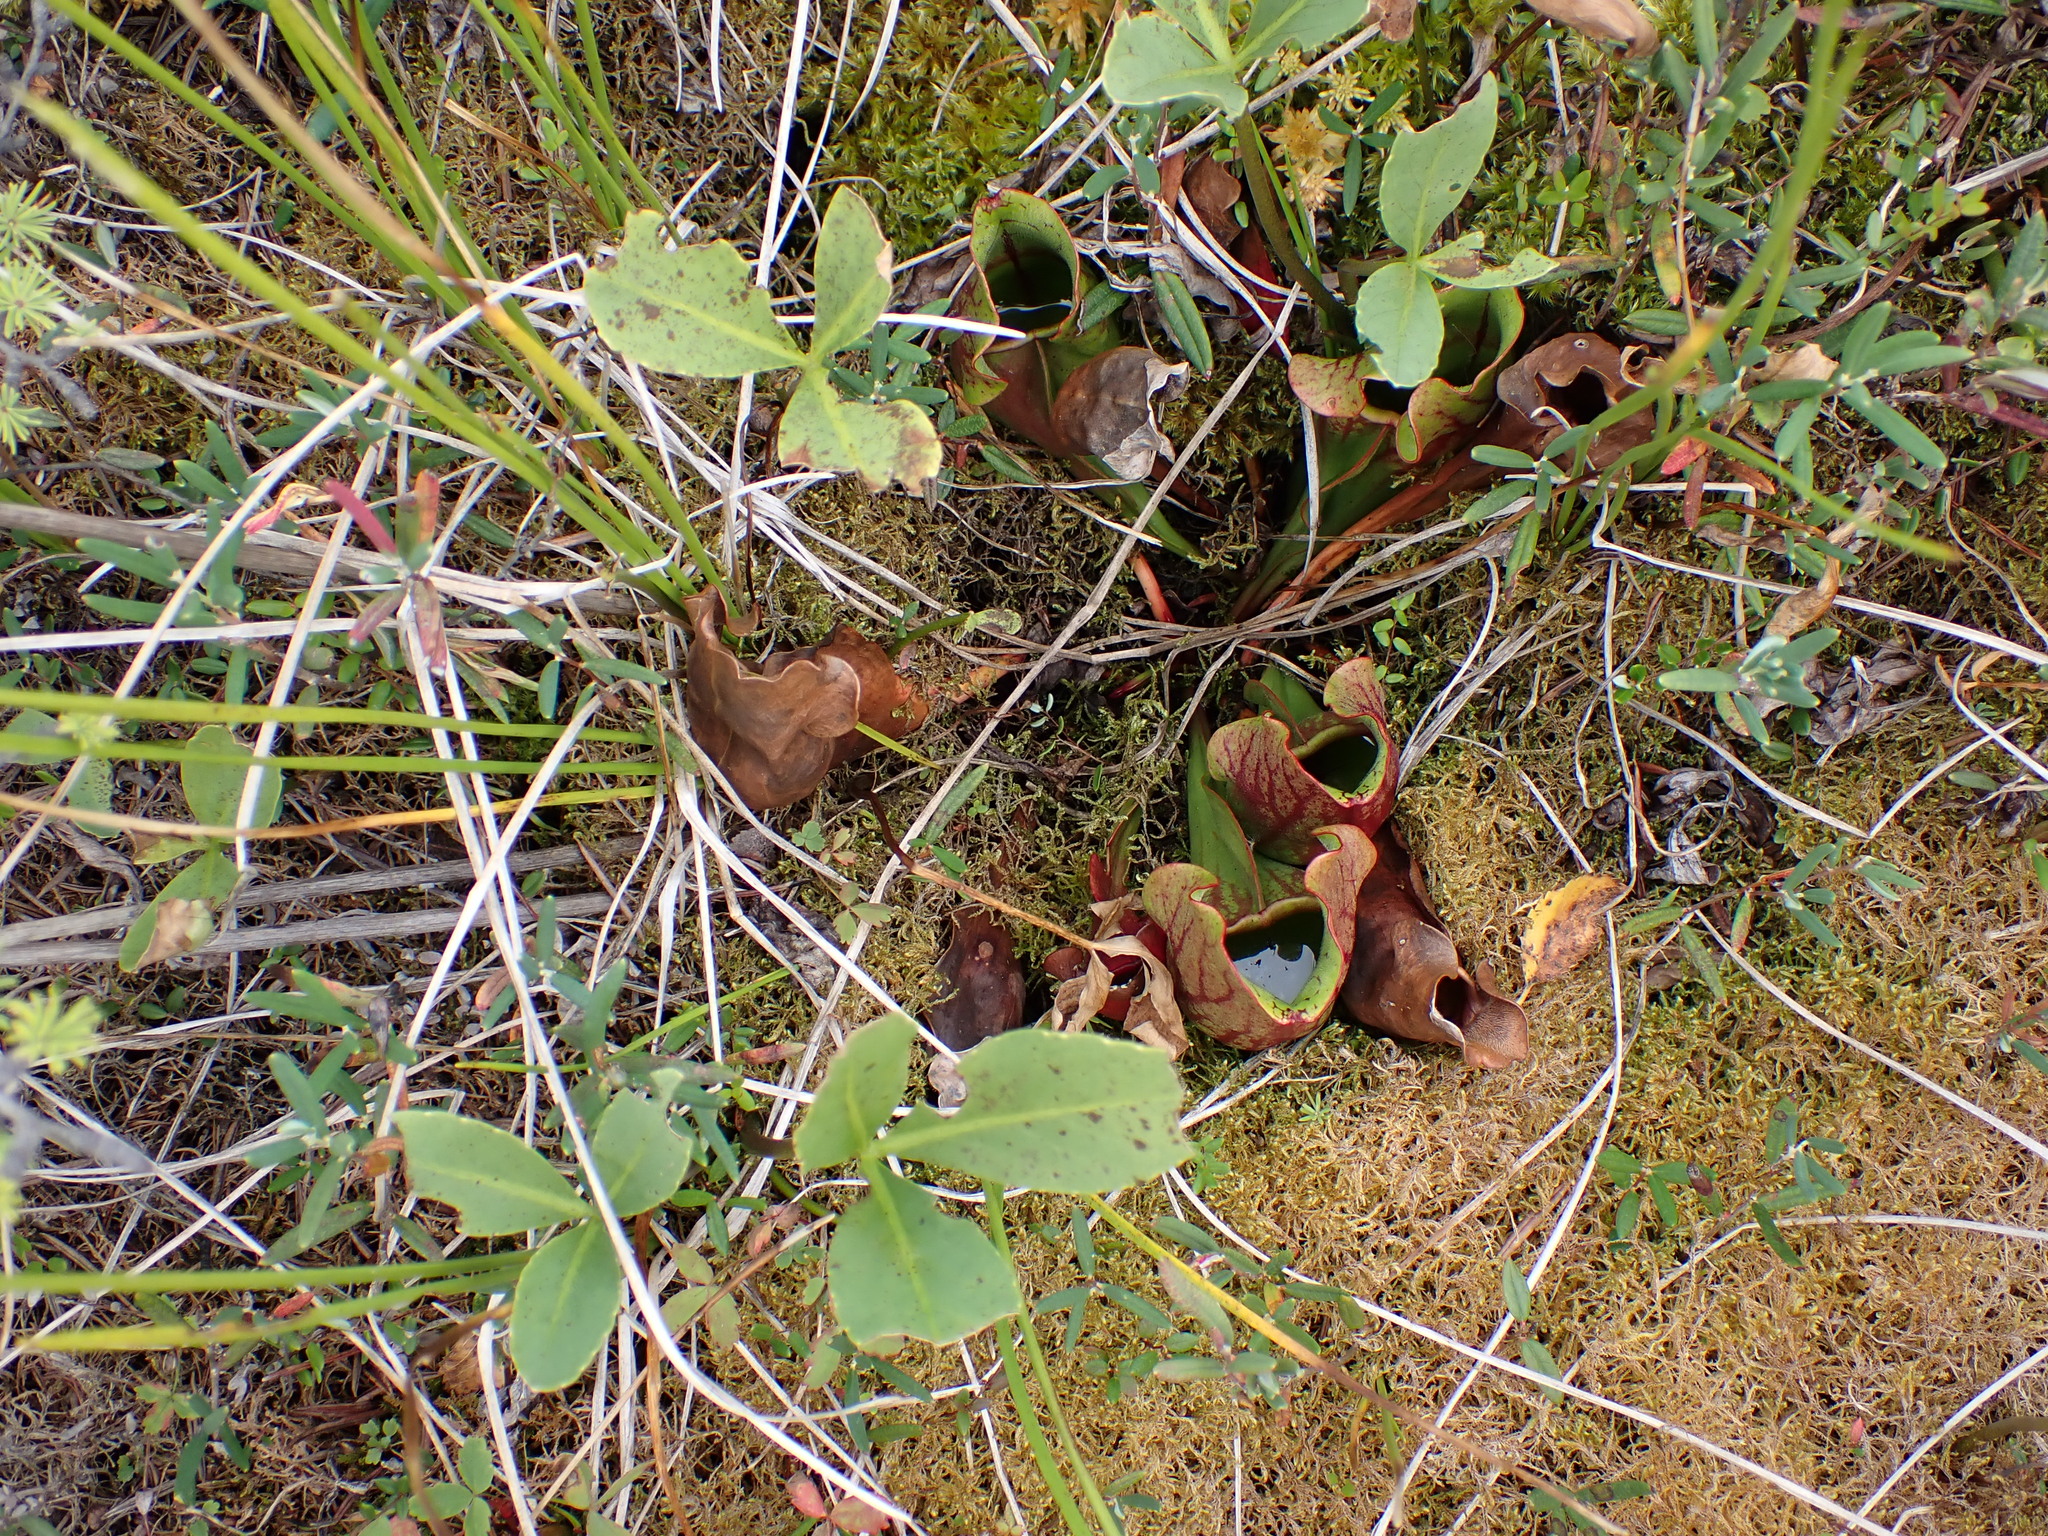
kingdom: Plantae
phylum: Tracheophyta
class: Magnoliopsida
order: Ericales
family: Sarraceniaceae
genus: Sarracenia
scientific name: Sarracenia purpurea
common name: Pitcherplant
